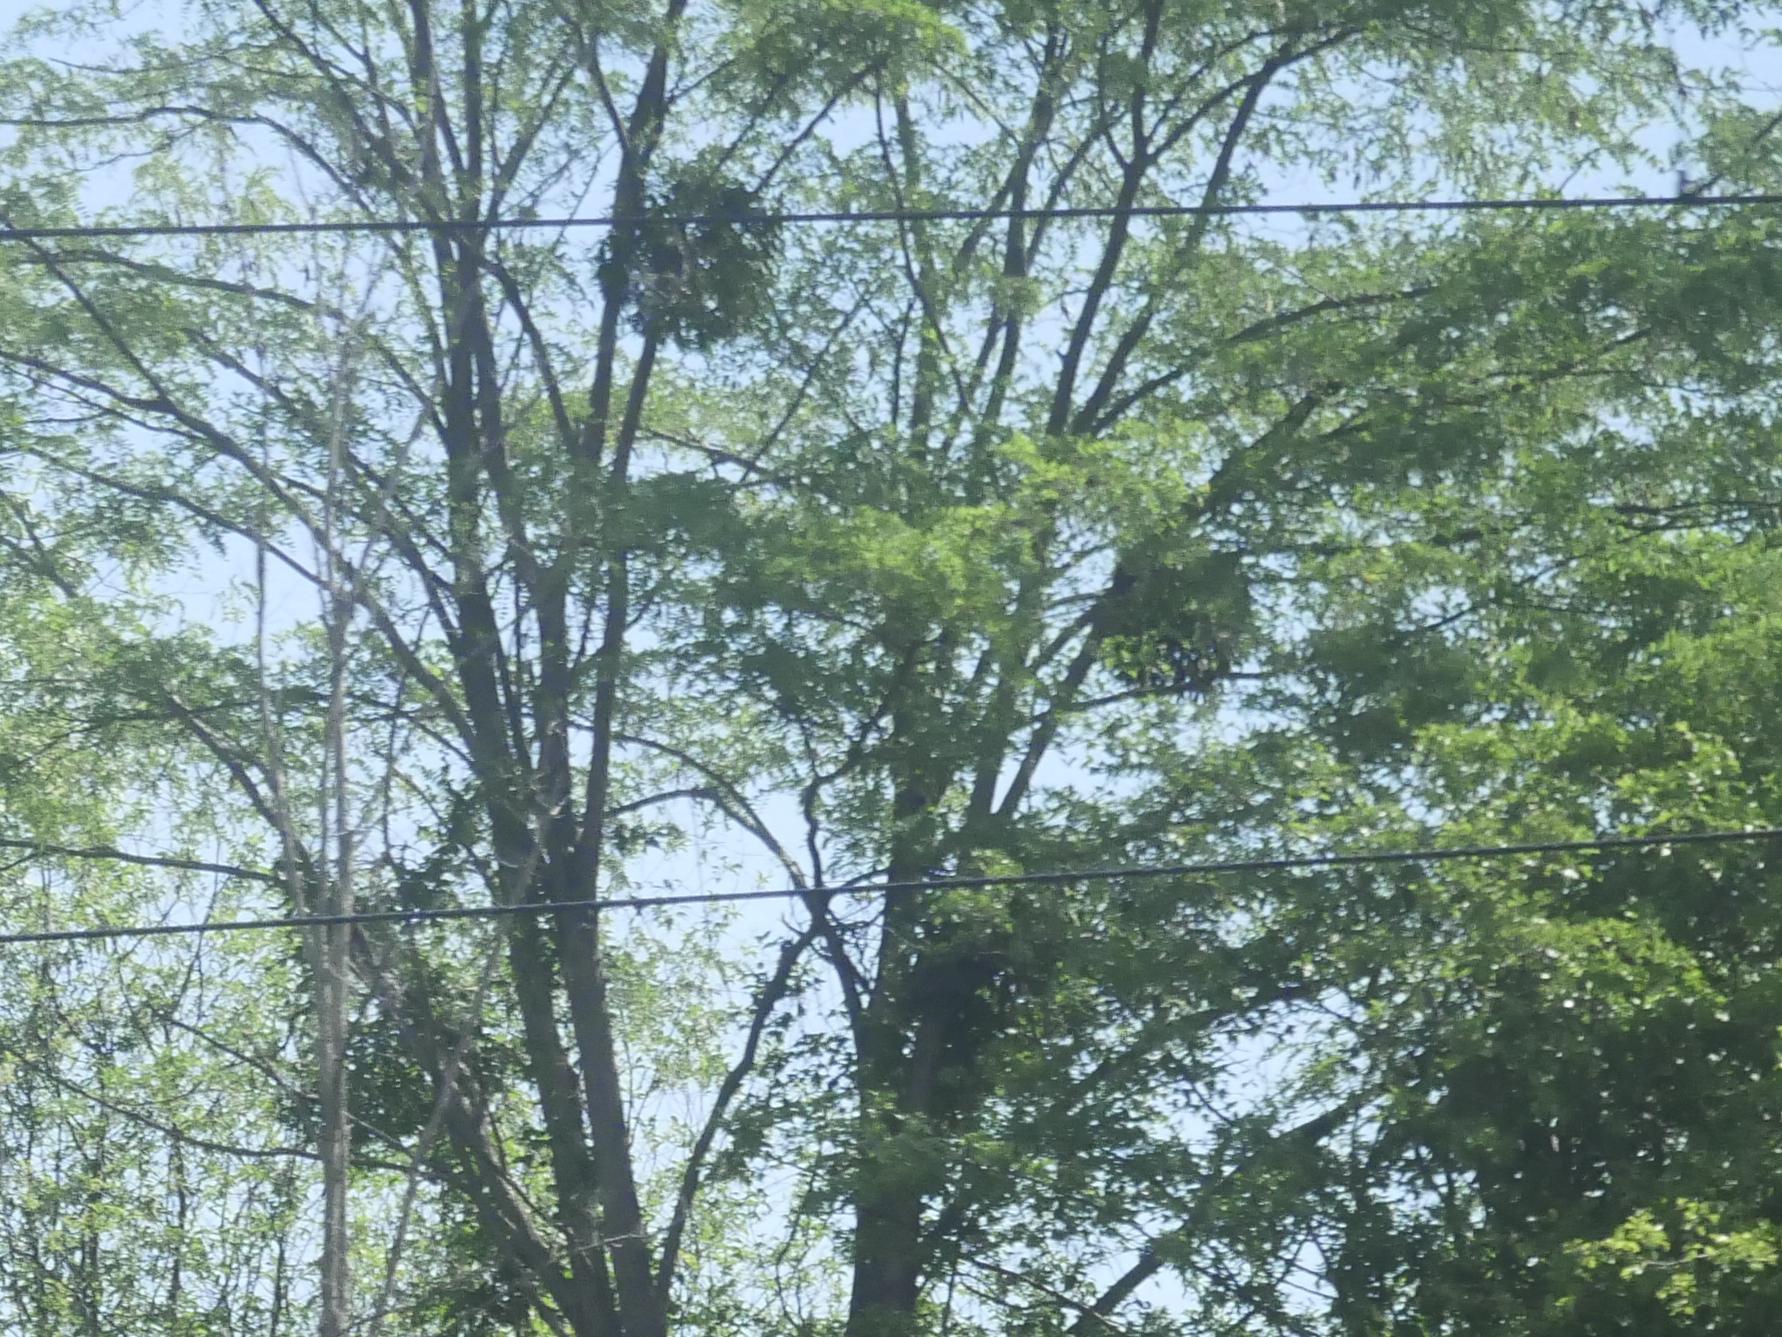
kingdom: Plantae
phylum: Tracheophyta
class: Magnoliopsida
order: Santalales
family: Viscaceae
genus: Viscum
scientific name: Viscum album
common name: Mistletoe
